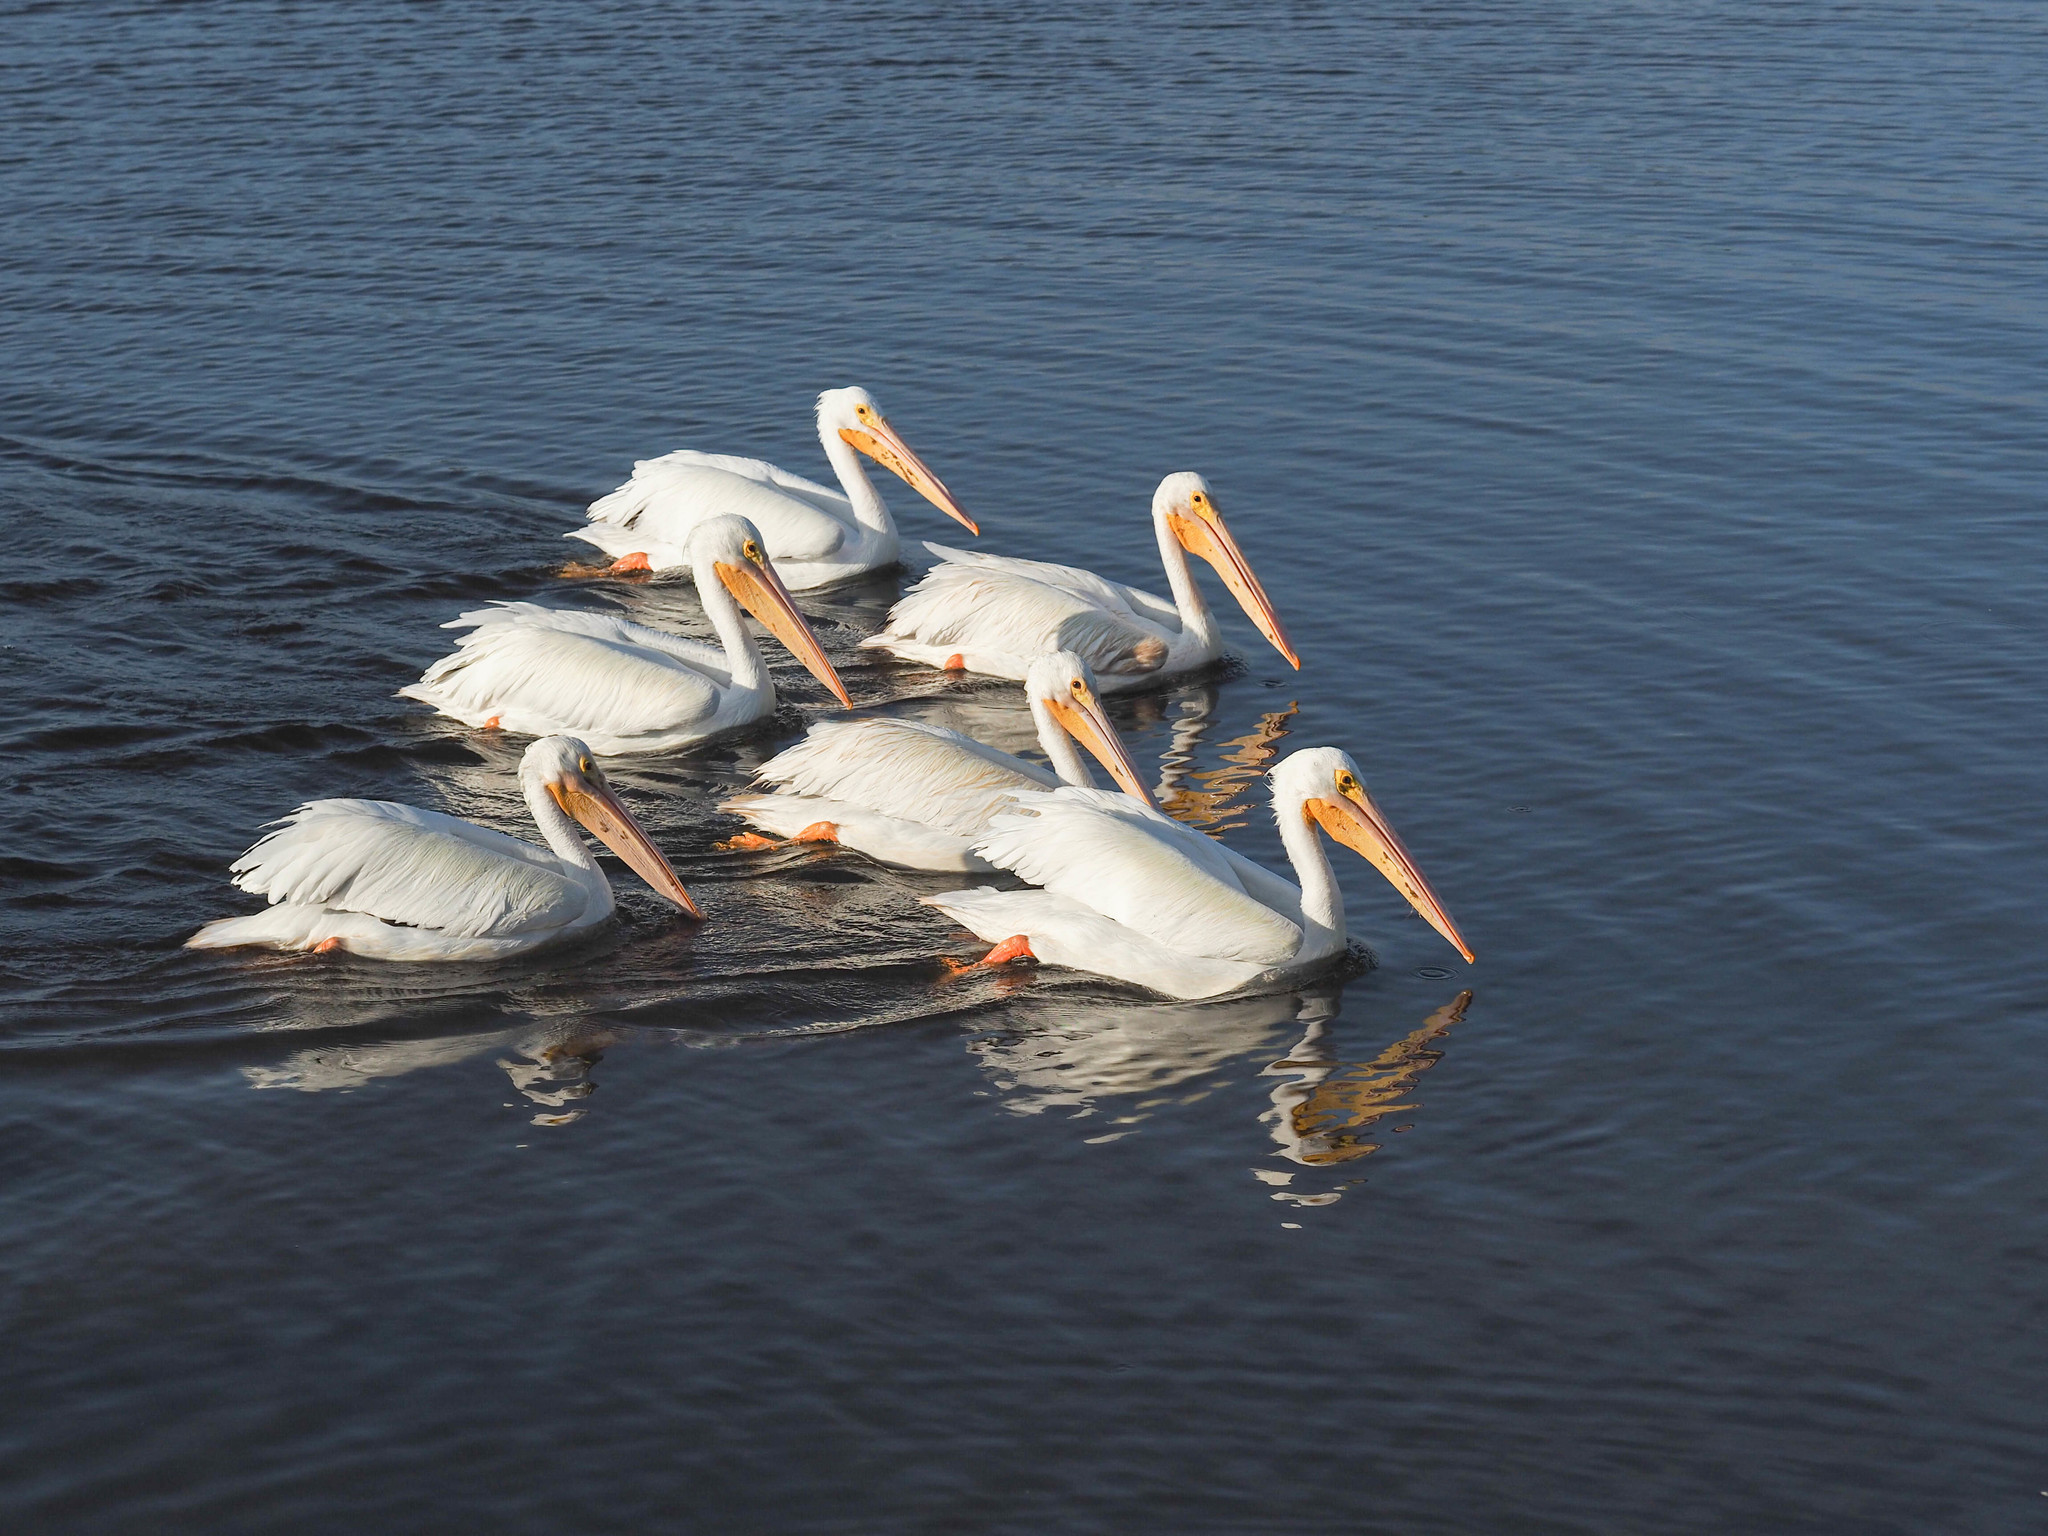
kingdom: Animalia
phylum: Chordata
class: Aves
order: Pelecaniformes
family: Pelecanidae
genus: Pelecanus
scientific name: Pelecanus erythrorhynchos
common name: American white pelican
